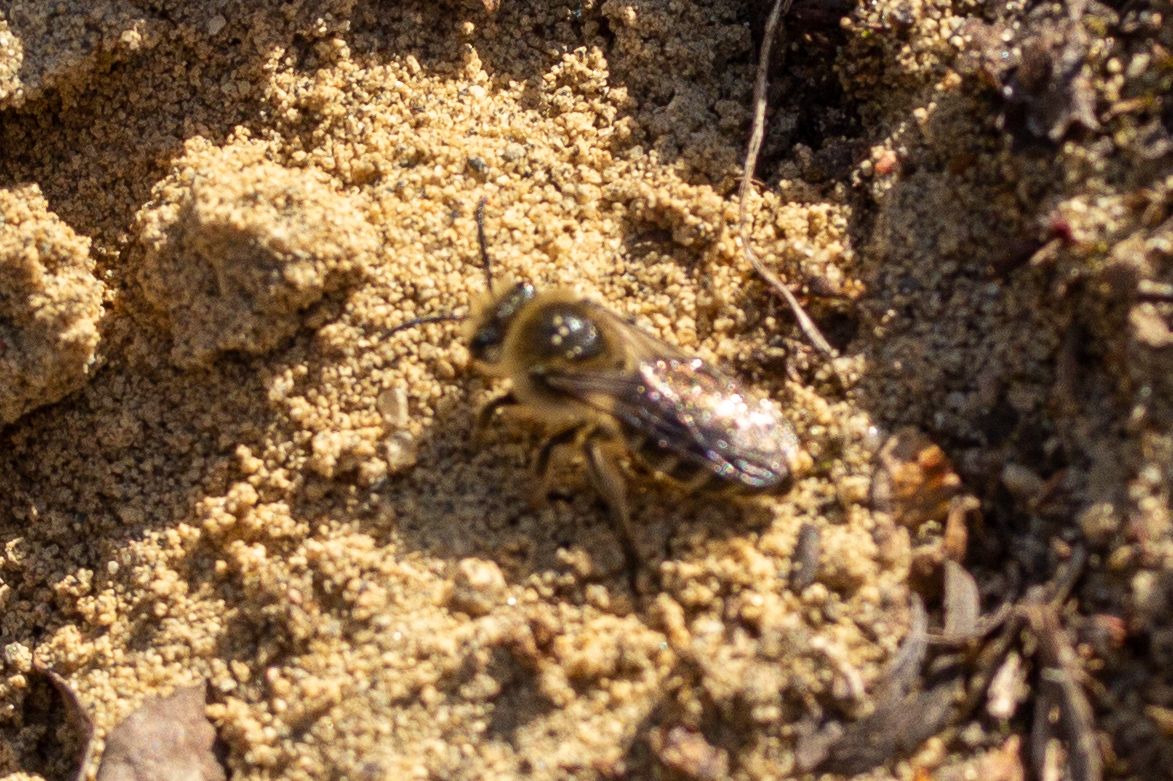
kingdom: Animalia
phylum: Arthropoda
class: Insecta
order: Hymenoptera
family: Colletidae
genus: Colletes
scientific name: Colletes inaequalis
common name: Unequal cellophane bee
